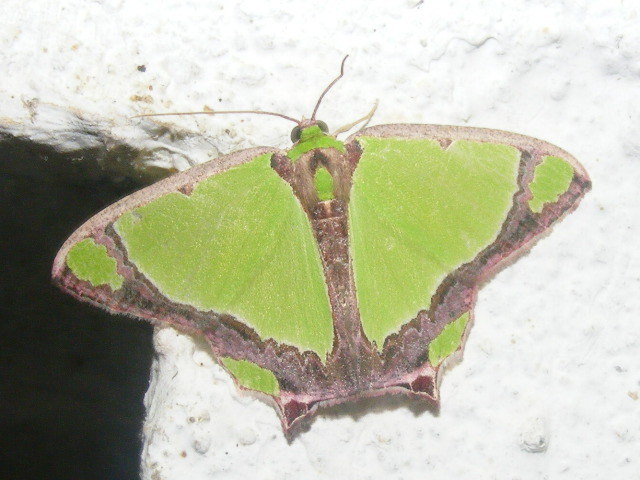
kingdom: Animalia
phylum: Arthropoda
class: Insecta
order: Lepidoptera
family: Geometridae
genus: Agathia
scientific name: Agathia laetata
